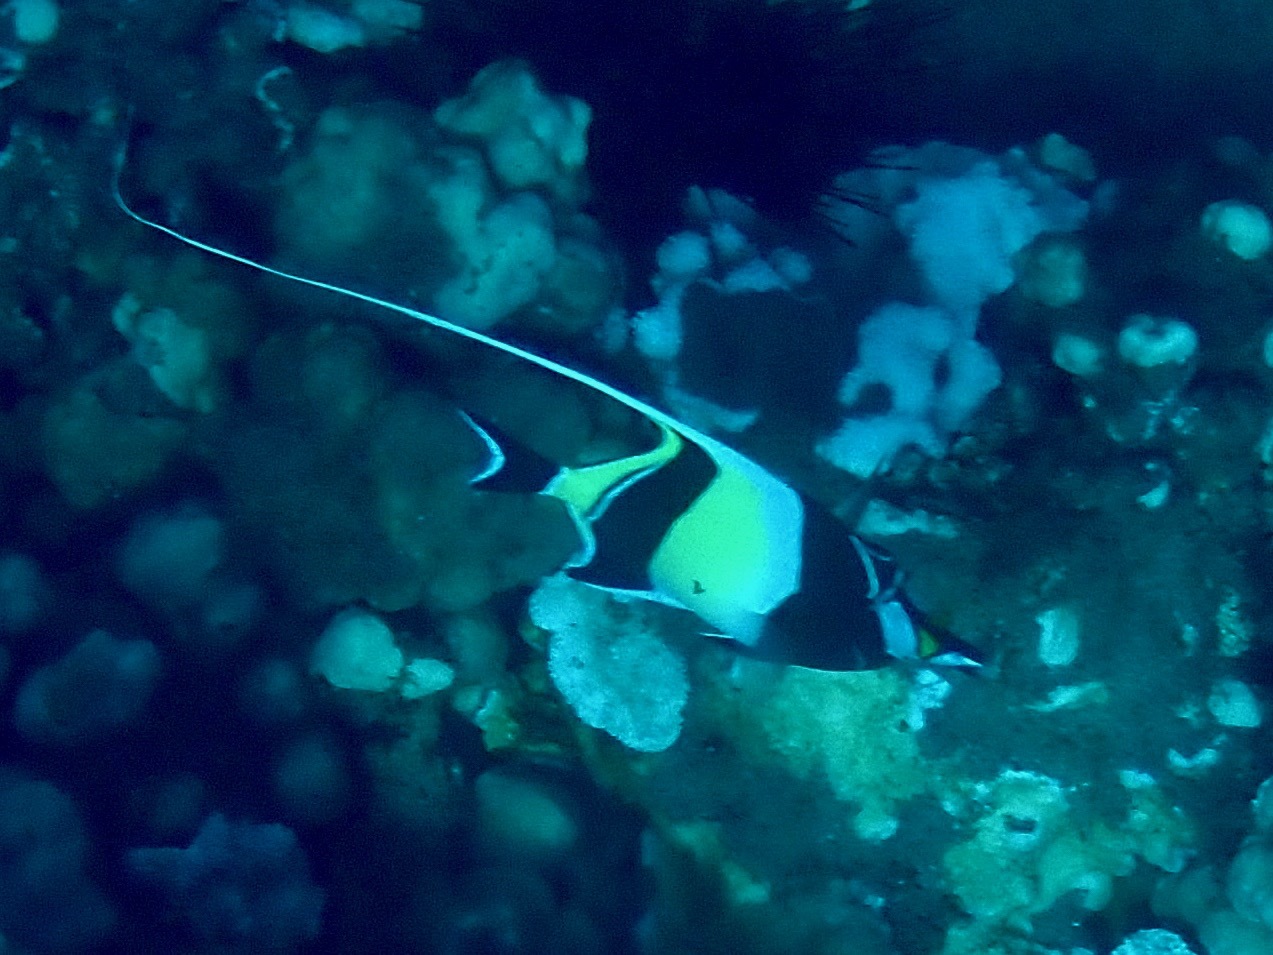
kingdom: Animalia
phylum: Chordata
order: Perciformes
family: Zanclidae
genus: Zanclus
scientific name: Zanclus cornutus
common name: Moorish idol
